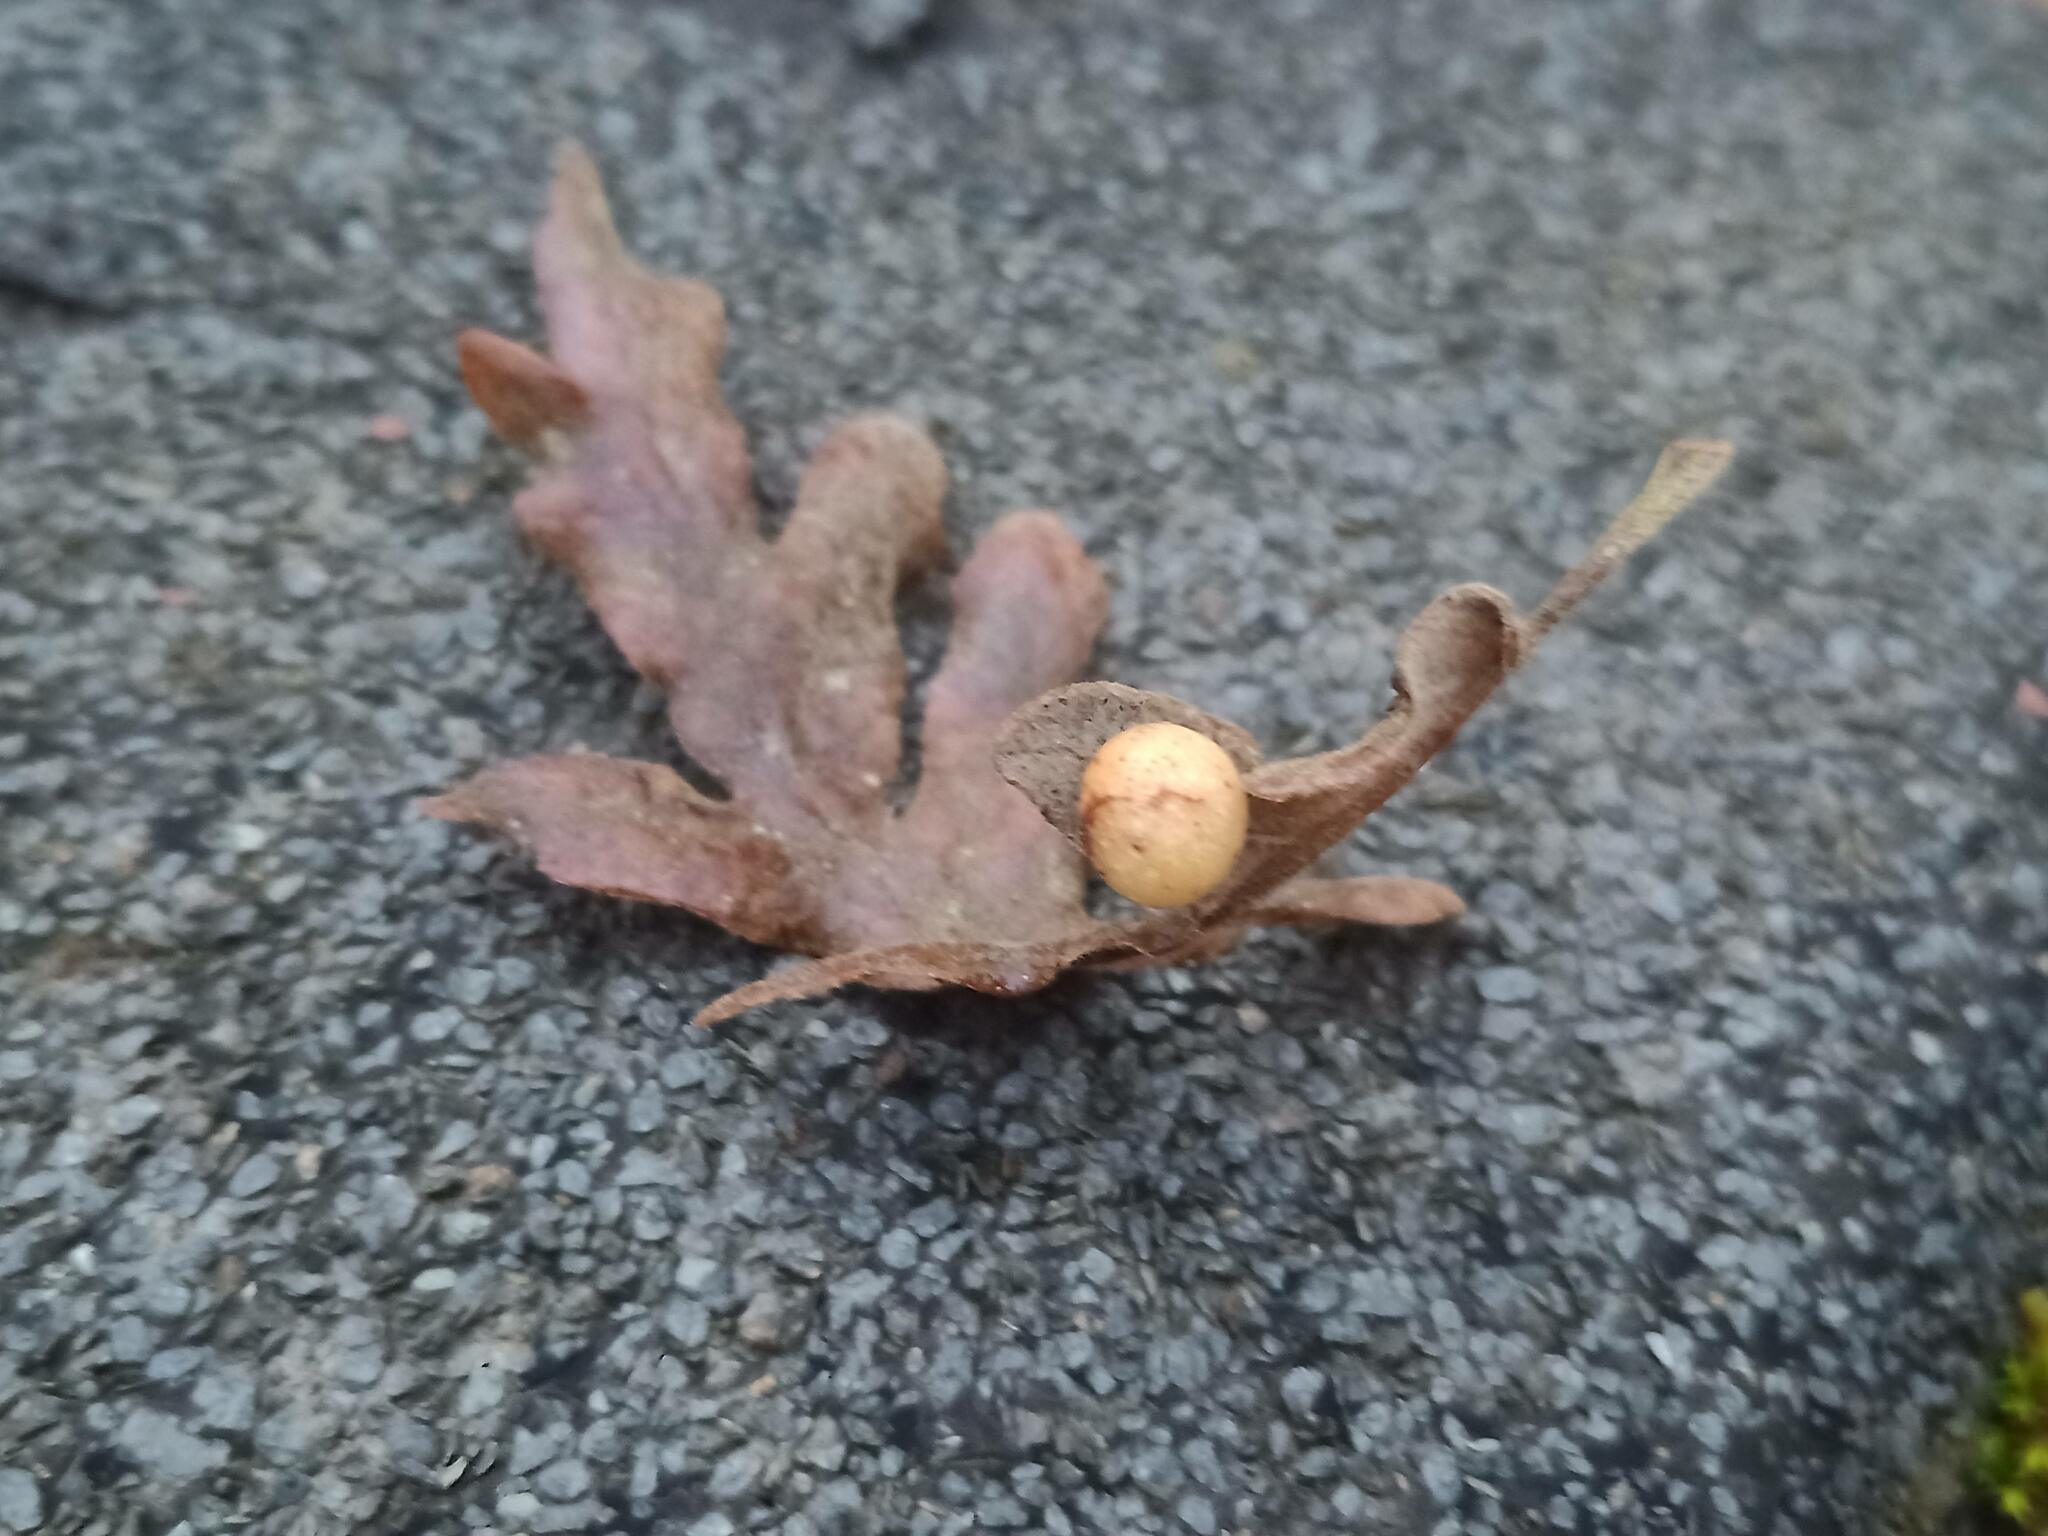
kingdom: Animalia
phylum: Arthropoda
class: Insecta
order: Hymenoptera
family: Cynipidae
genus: Cynips
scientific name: Cynips quercus
